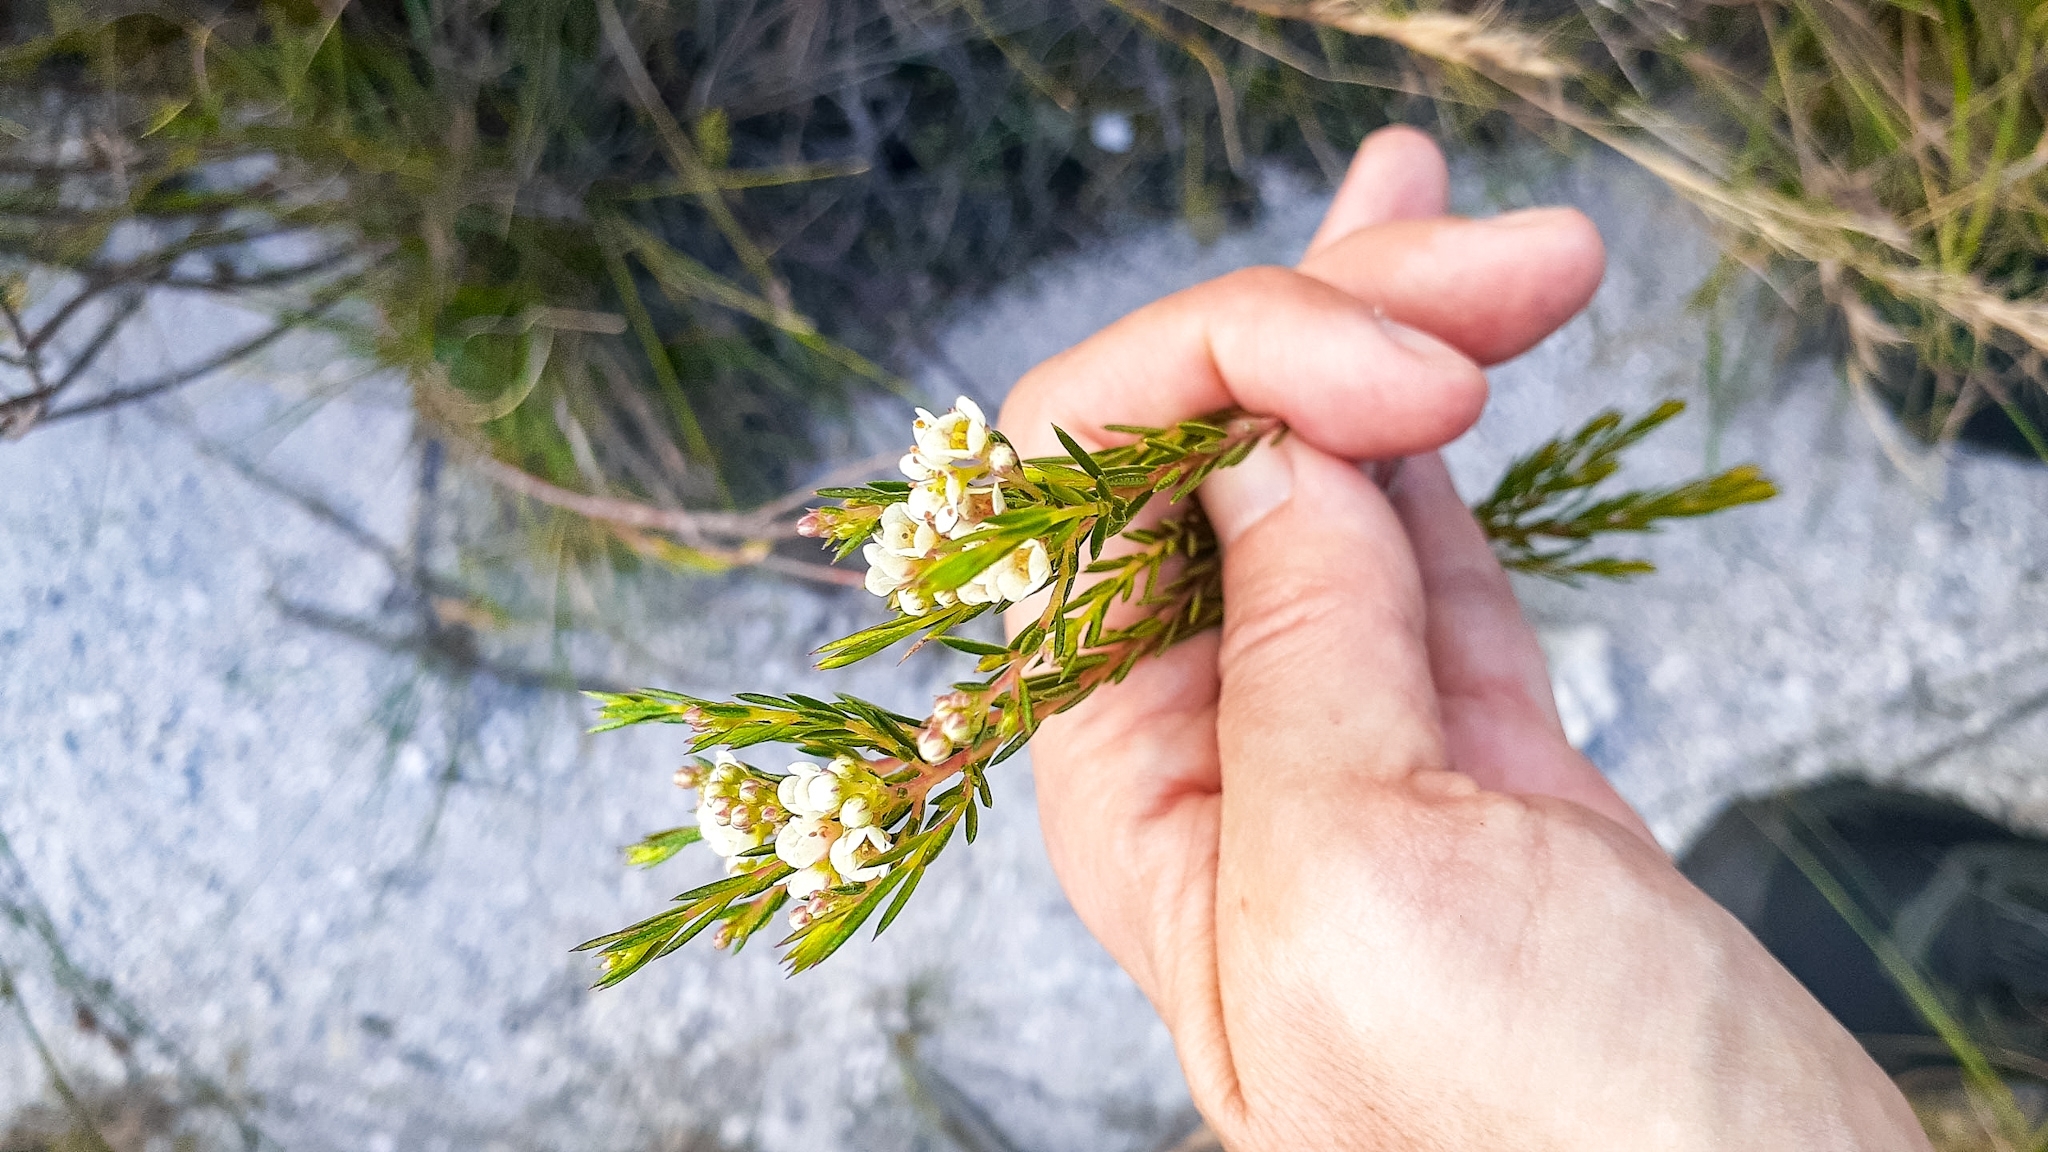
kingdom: Plantae
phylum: Tracheophyta
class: Magnoliopsida
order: Sapindales
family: Rutaceae
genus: Diosma
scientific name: Diosma hirsuta
